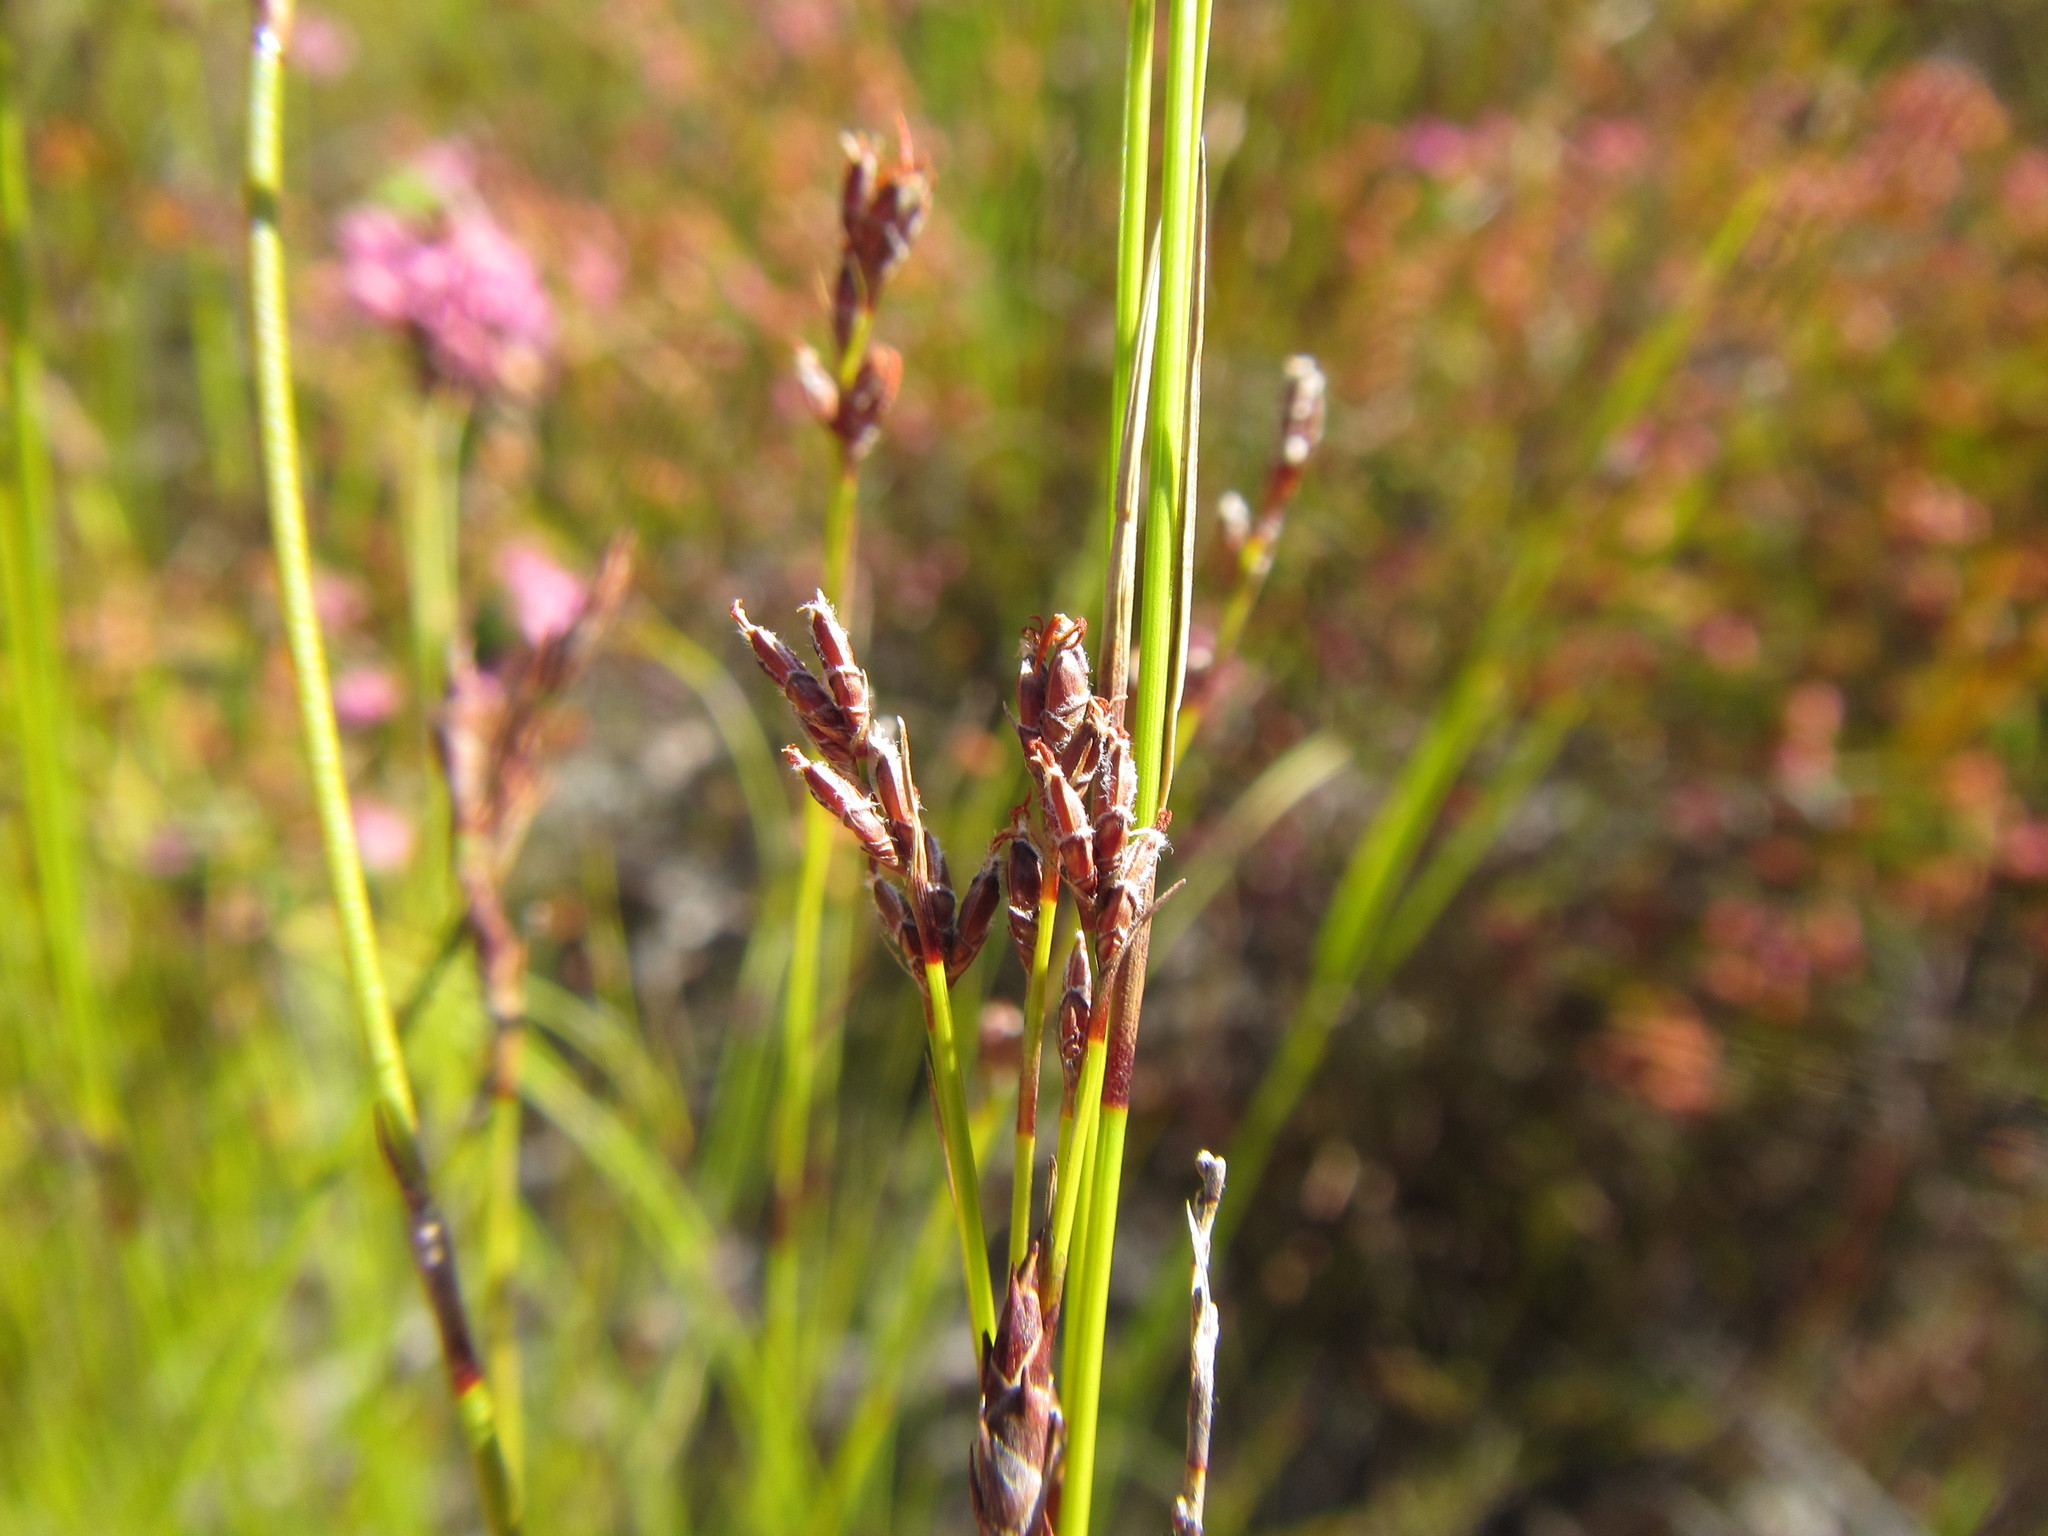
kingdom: Plantae
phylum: Tracheophyta
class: Liliopsida
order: Poales
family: Cyperaceae
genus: Tetraria
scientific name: Tetraria fimbriolata
